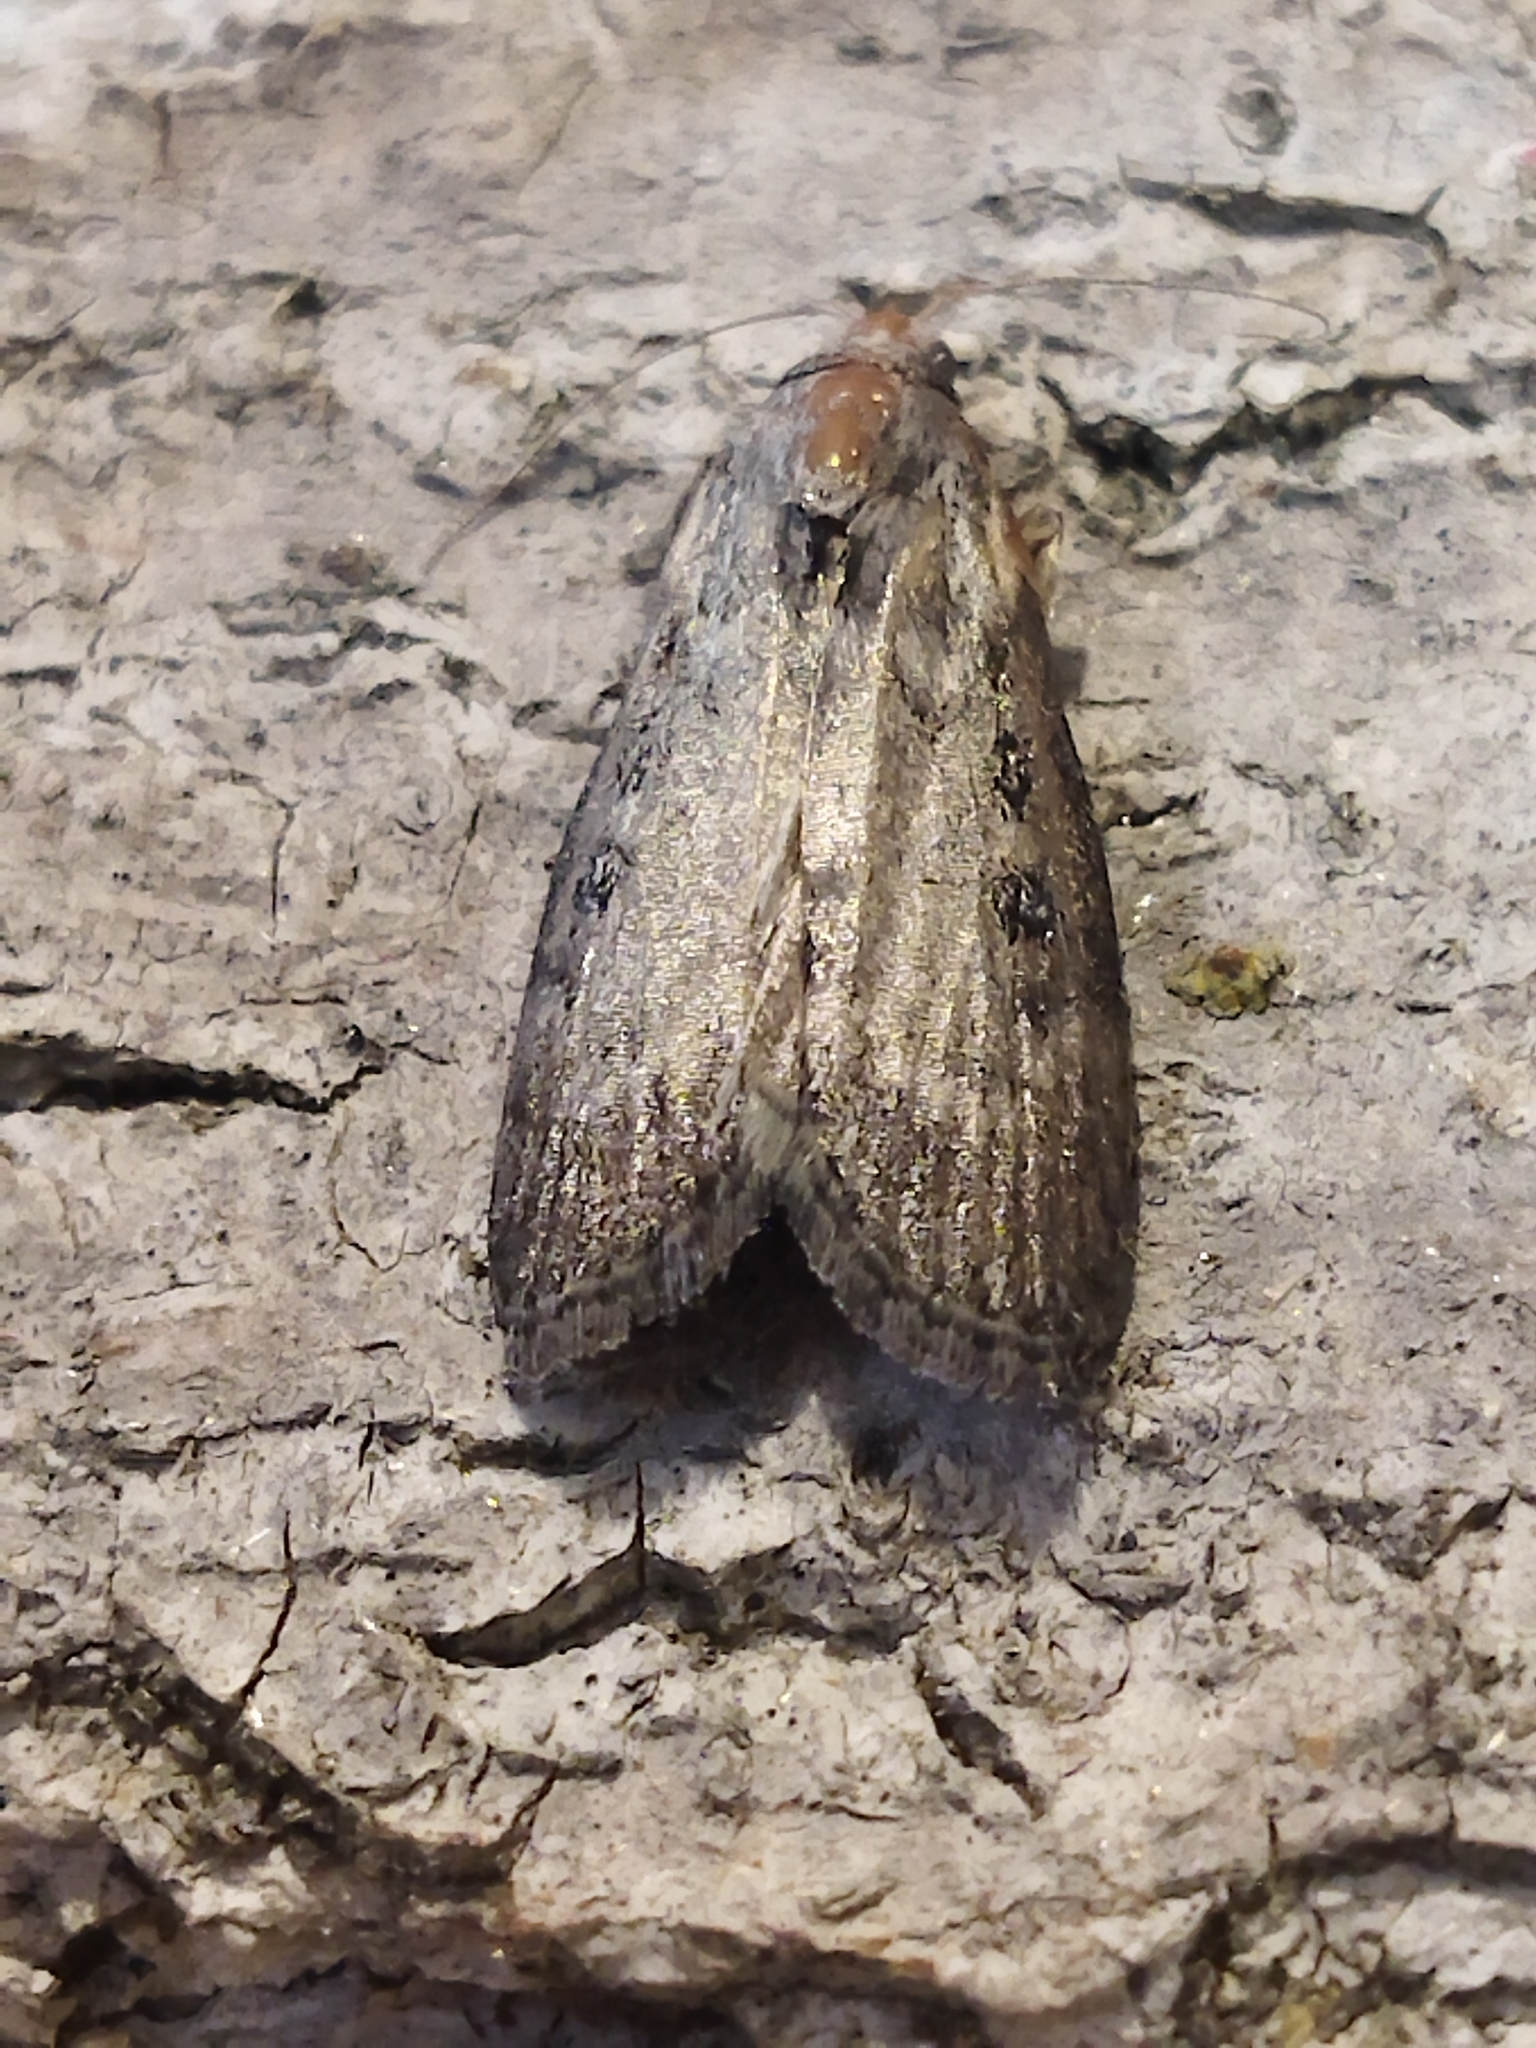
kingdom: Animalia
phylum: Arthropoda
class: Insecta
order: Lepidoptera
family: Pyralidae
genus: Lamoria
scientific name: Lamoria anella
